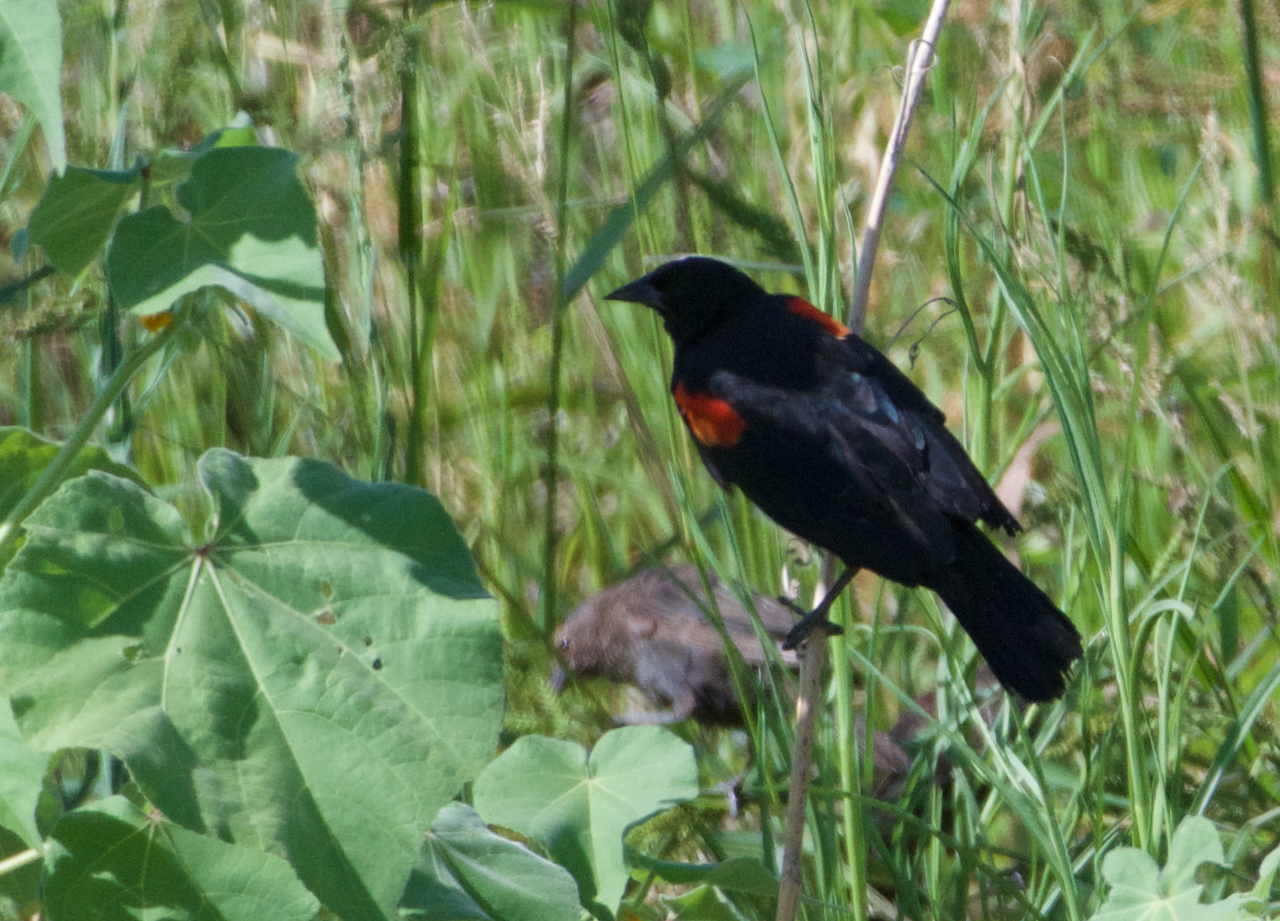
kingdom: Animalia
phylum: Chordata
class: Aves
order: Passeriformes
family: Icteridae
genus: Agelaius
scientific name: Agelaius phoeniceus
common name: Red-winged blackbird
